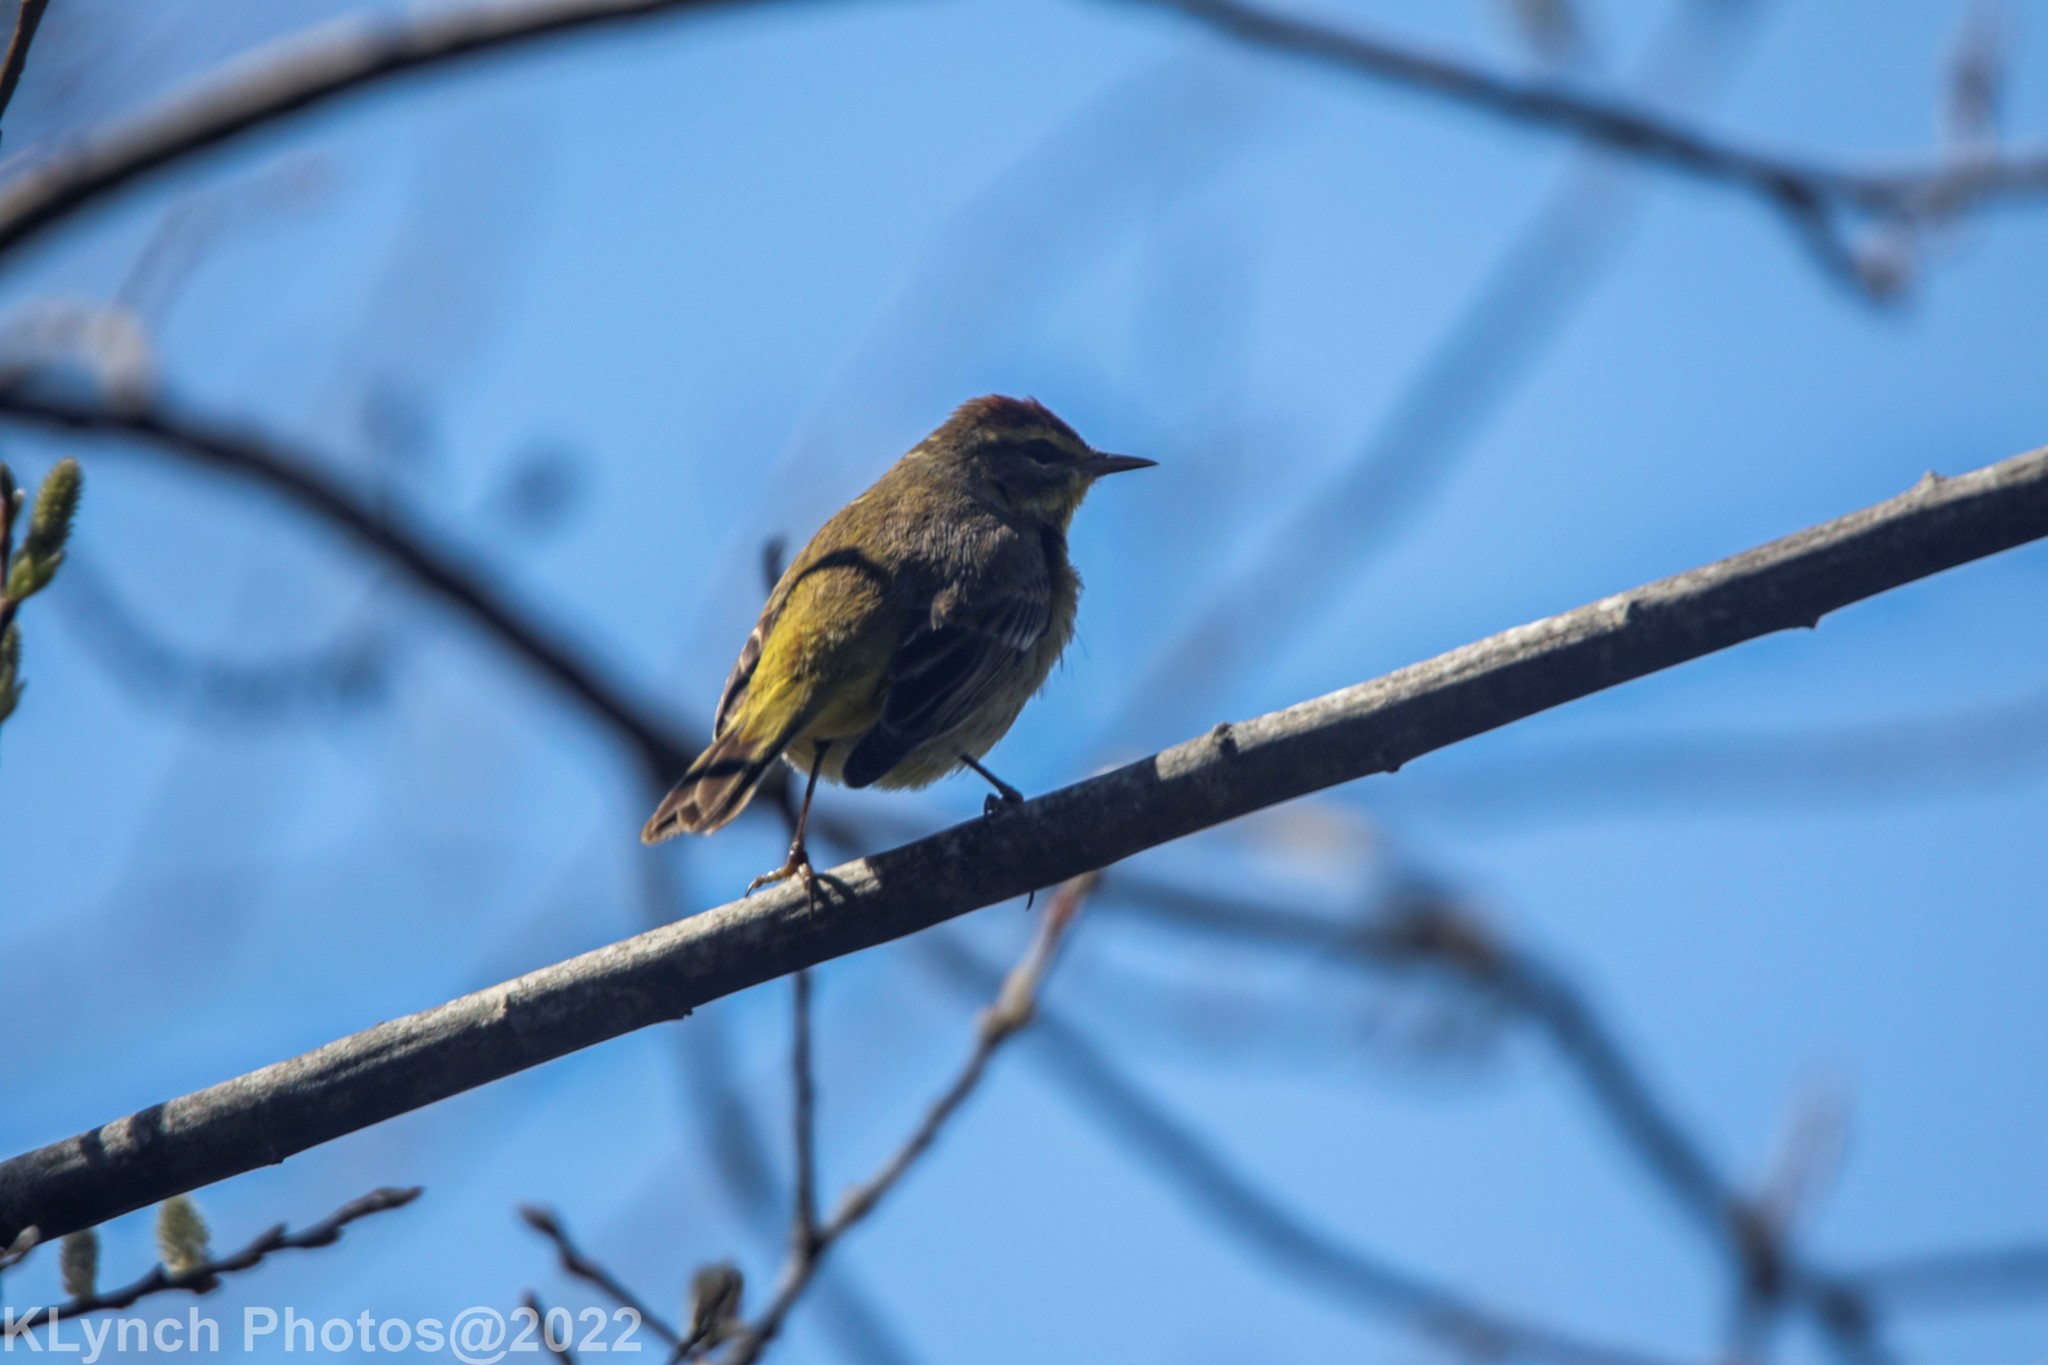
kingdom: Animalia
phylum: Chordata
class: Aves
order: Passeriformes
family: Parulidae
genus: Setophaga
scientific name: Setophaga palmarum
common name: Palm warbler
